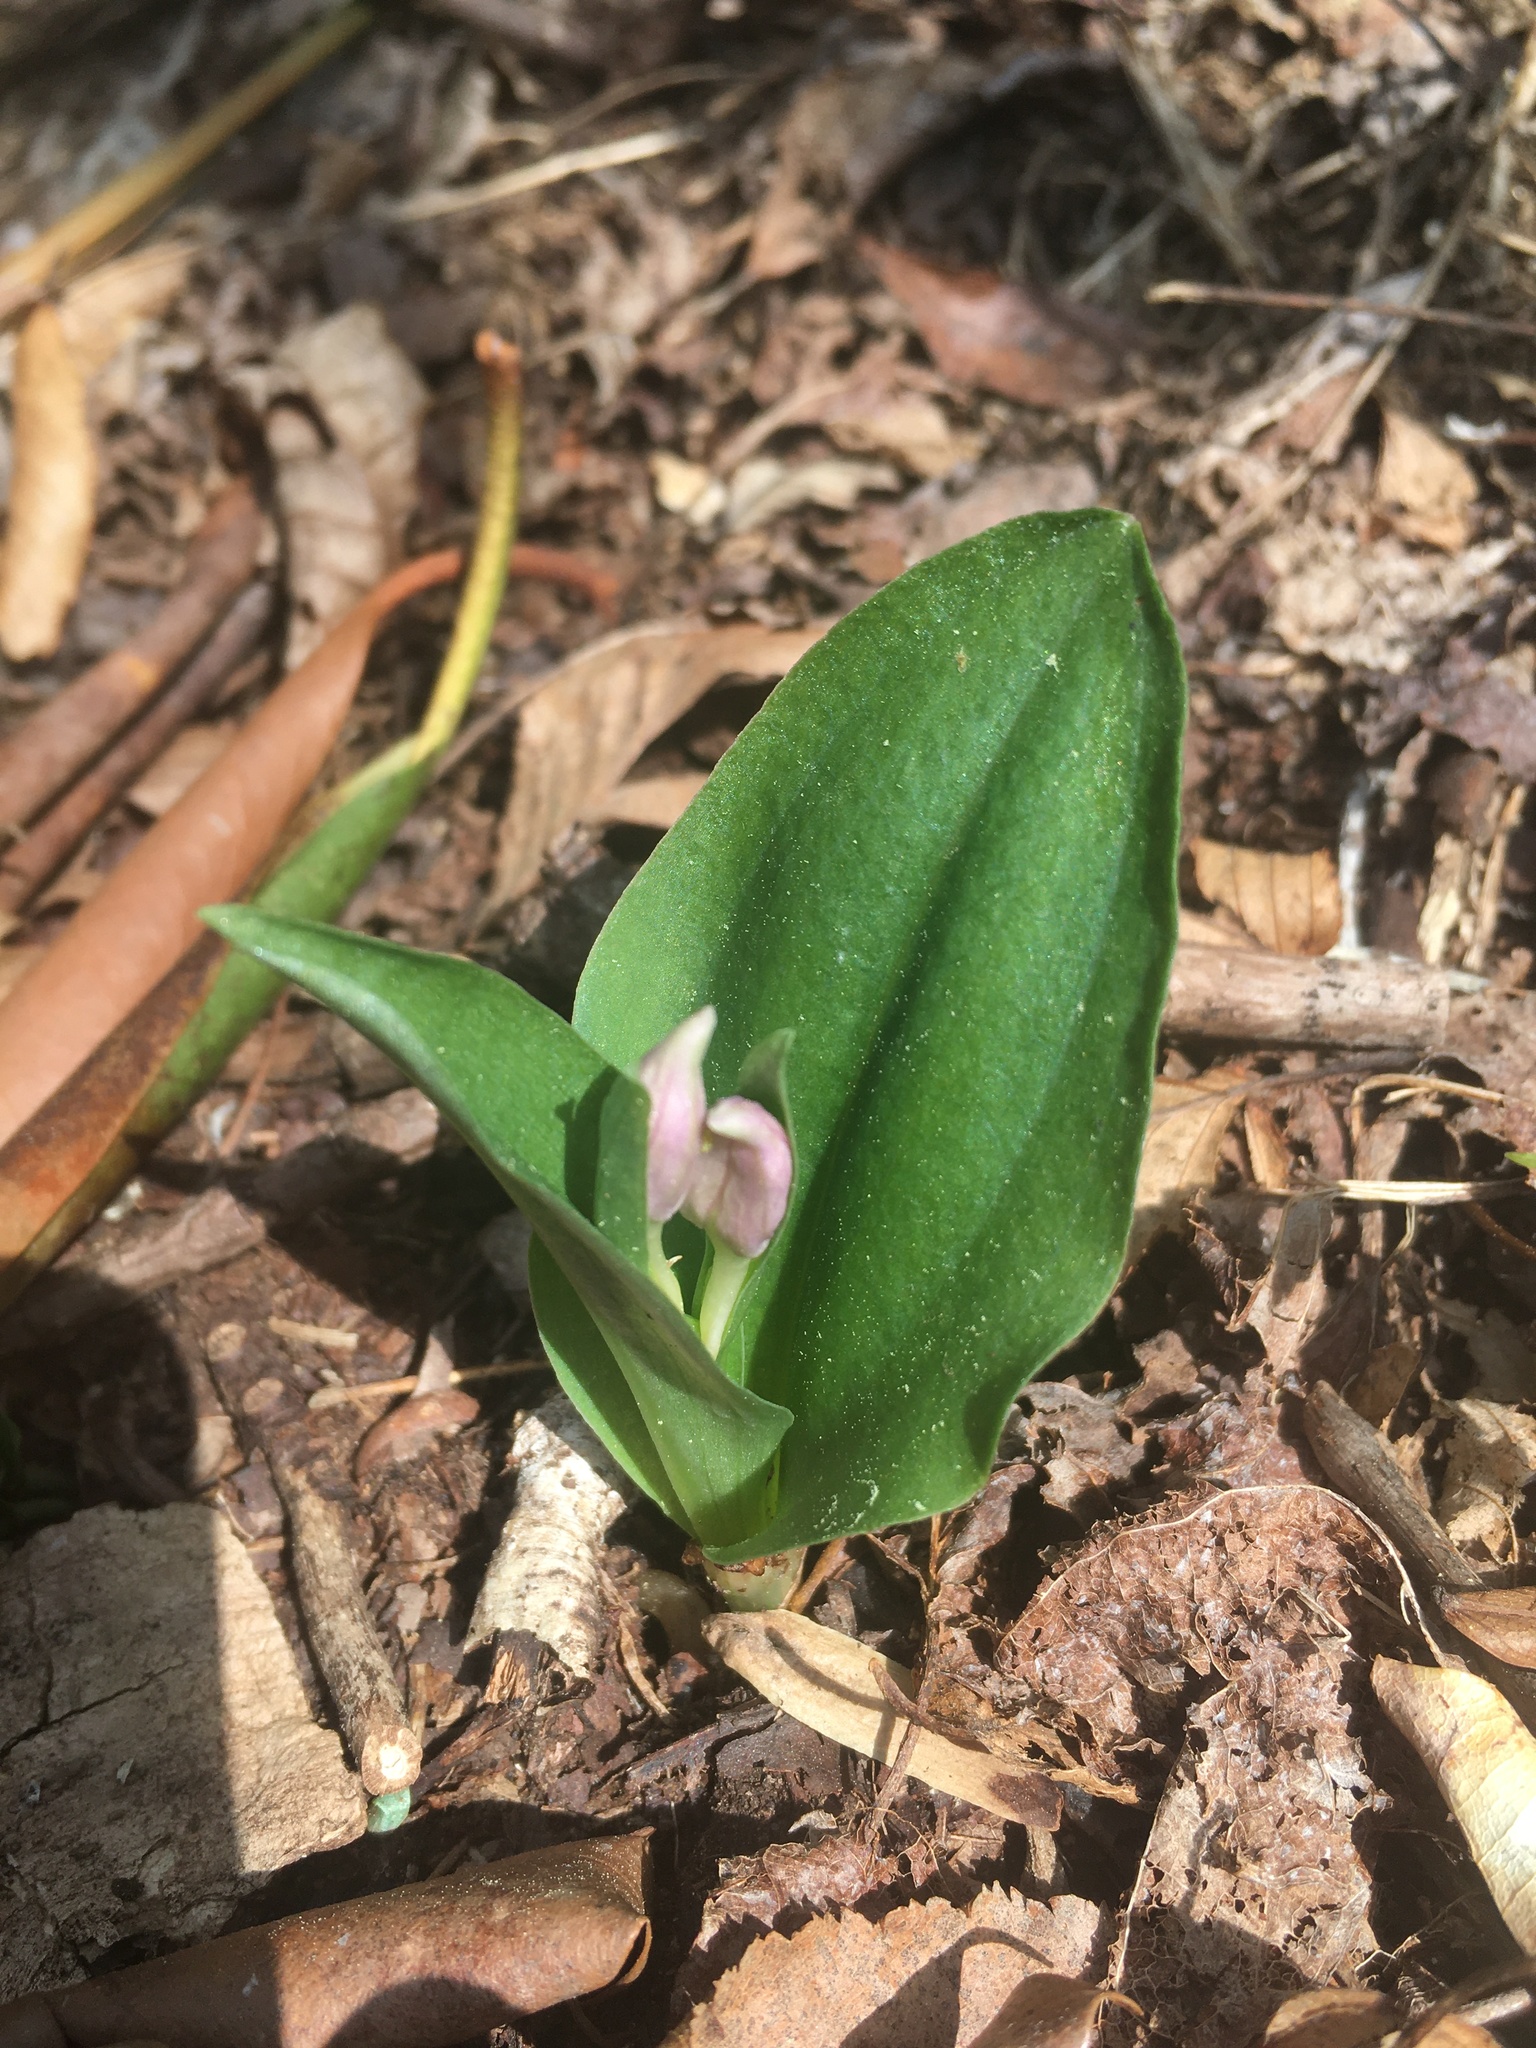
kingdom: Plantae
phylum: Tracheophyta
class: Liliopsida
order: Asparagales
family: Orchidaceae
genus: Galearis
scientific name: Galearis spectabilis
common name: Purple-hooded orchis
